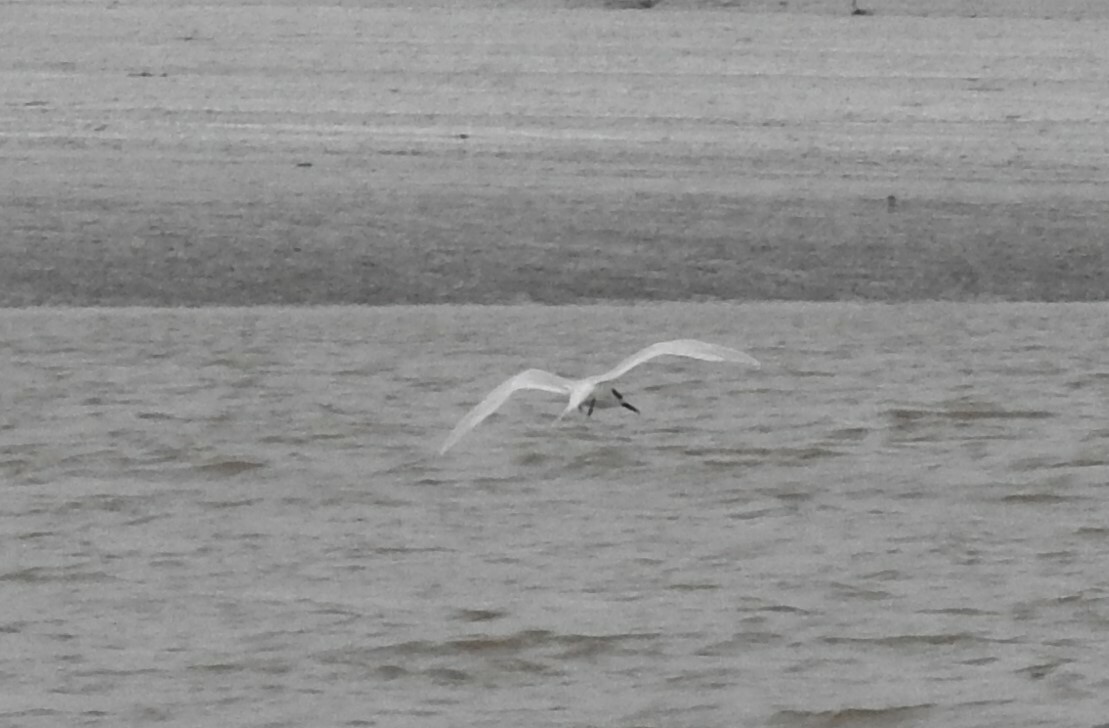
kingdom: Animalia
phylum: Chordata
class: Aves
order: Charadriiformes
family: Laridae
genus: Thalasseus
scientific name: Thalasseus sandvicensis
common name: Sandwich tern
